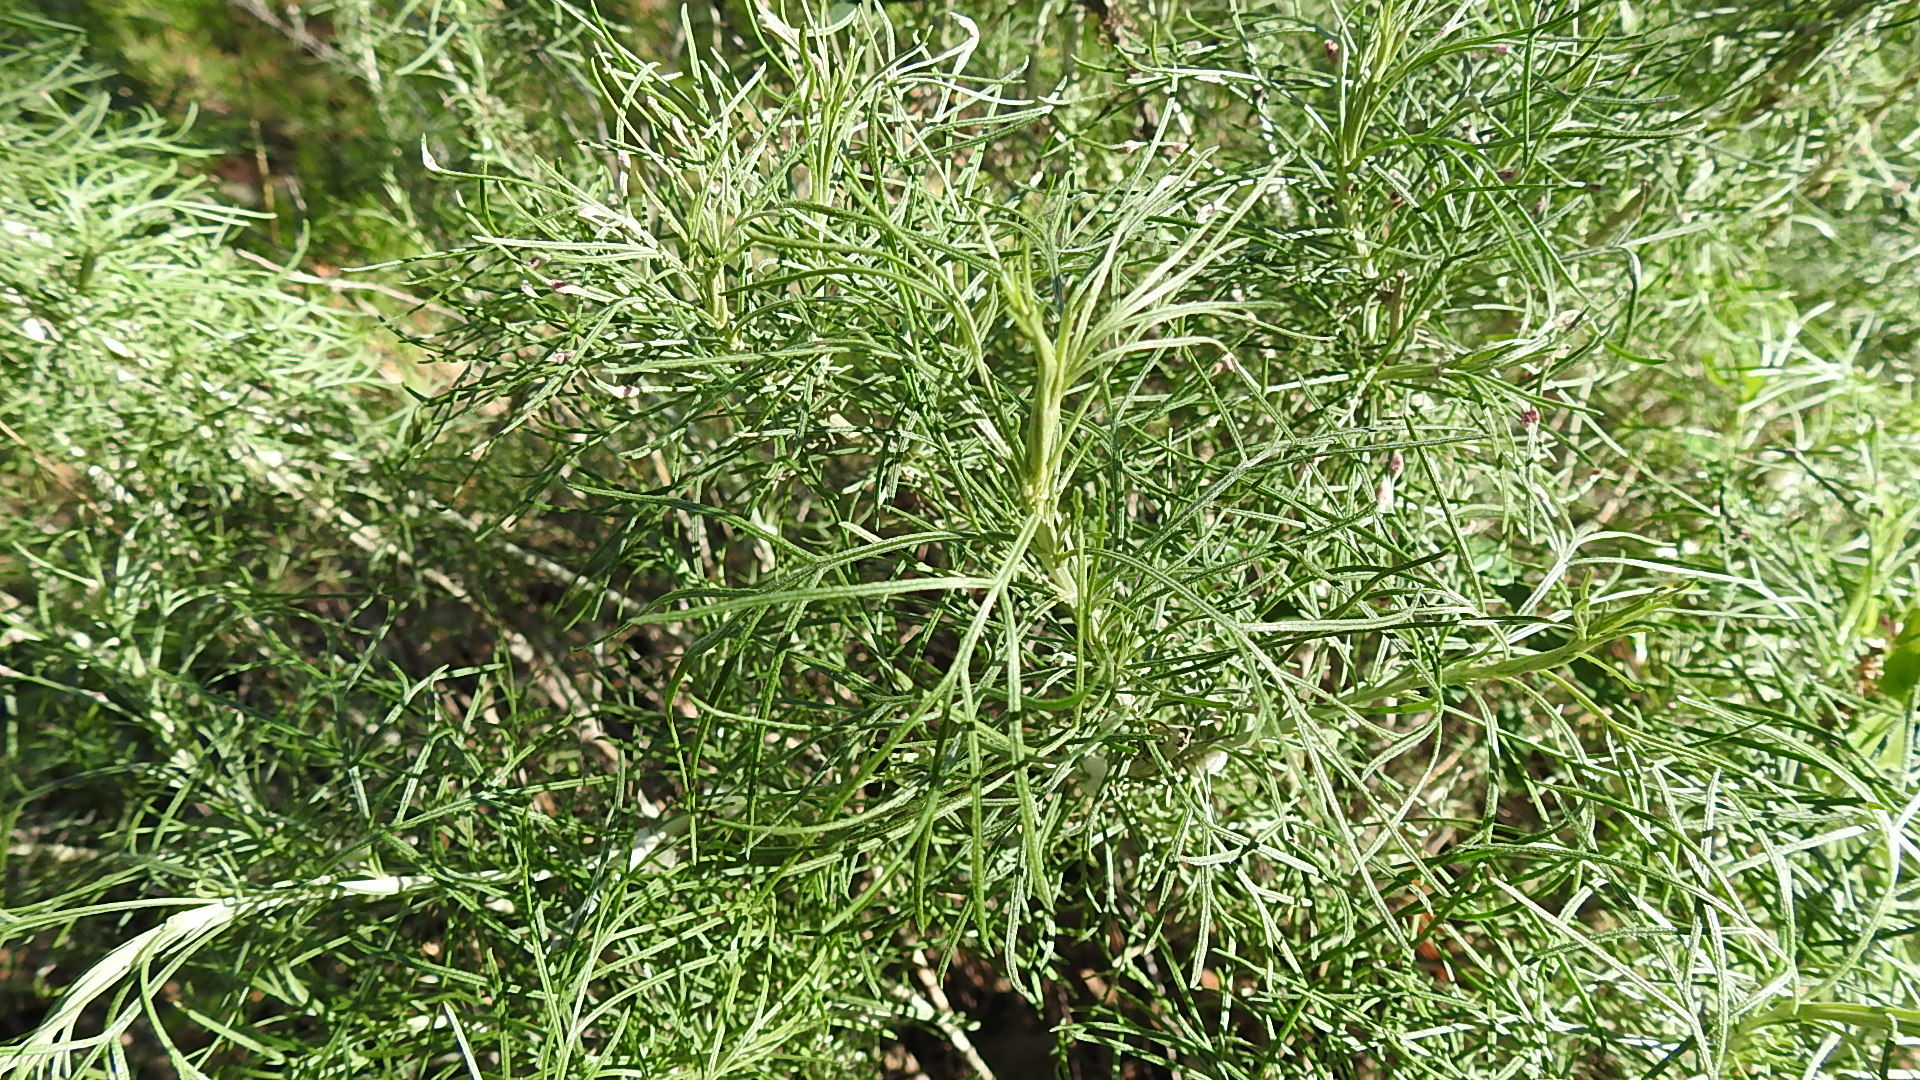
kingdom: Plantae
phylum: Tracheophyta
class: Magnoliopsida
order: Asterales
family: Asteraceae
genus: Artemisia
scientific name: Artemisia californica
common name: California sagebrush
